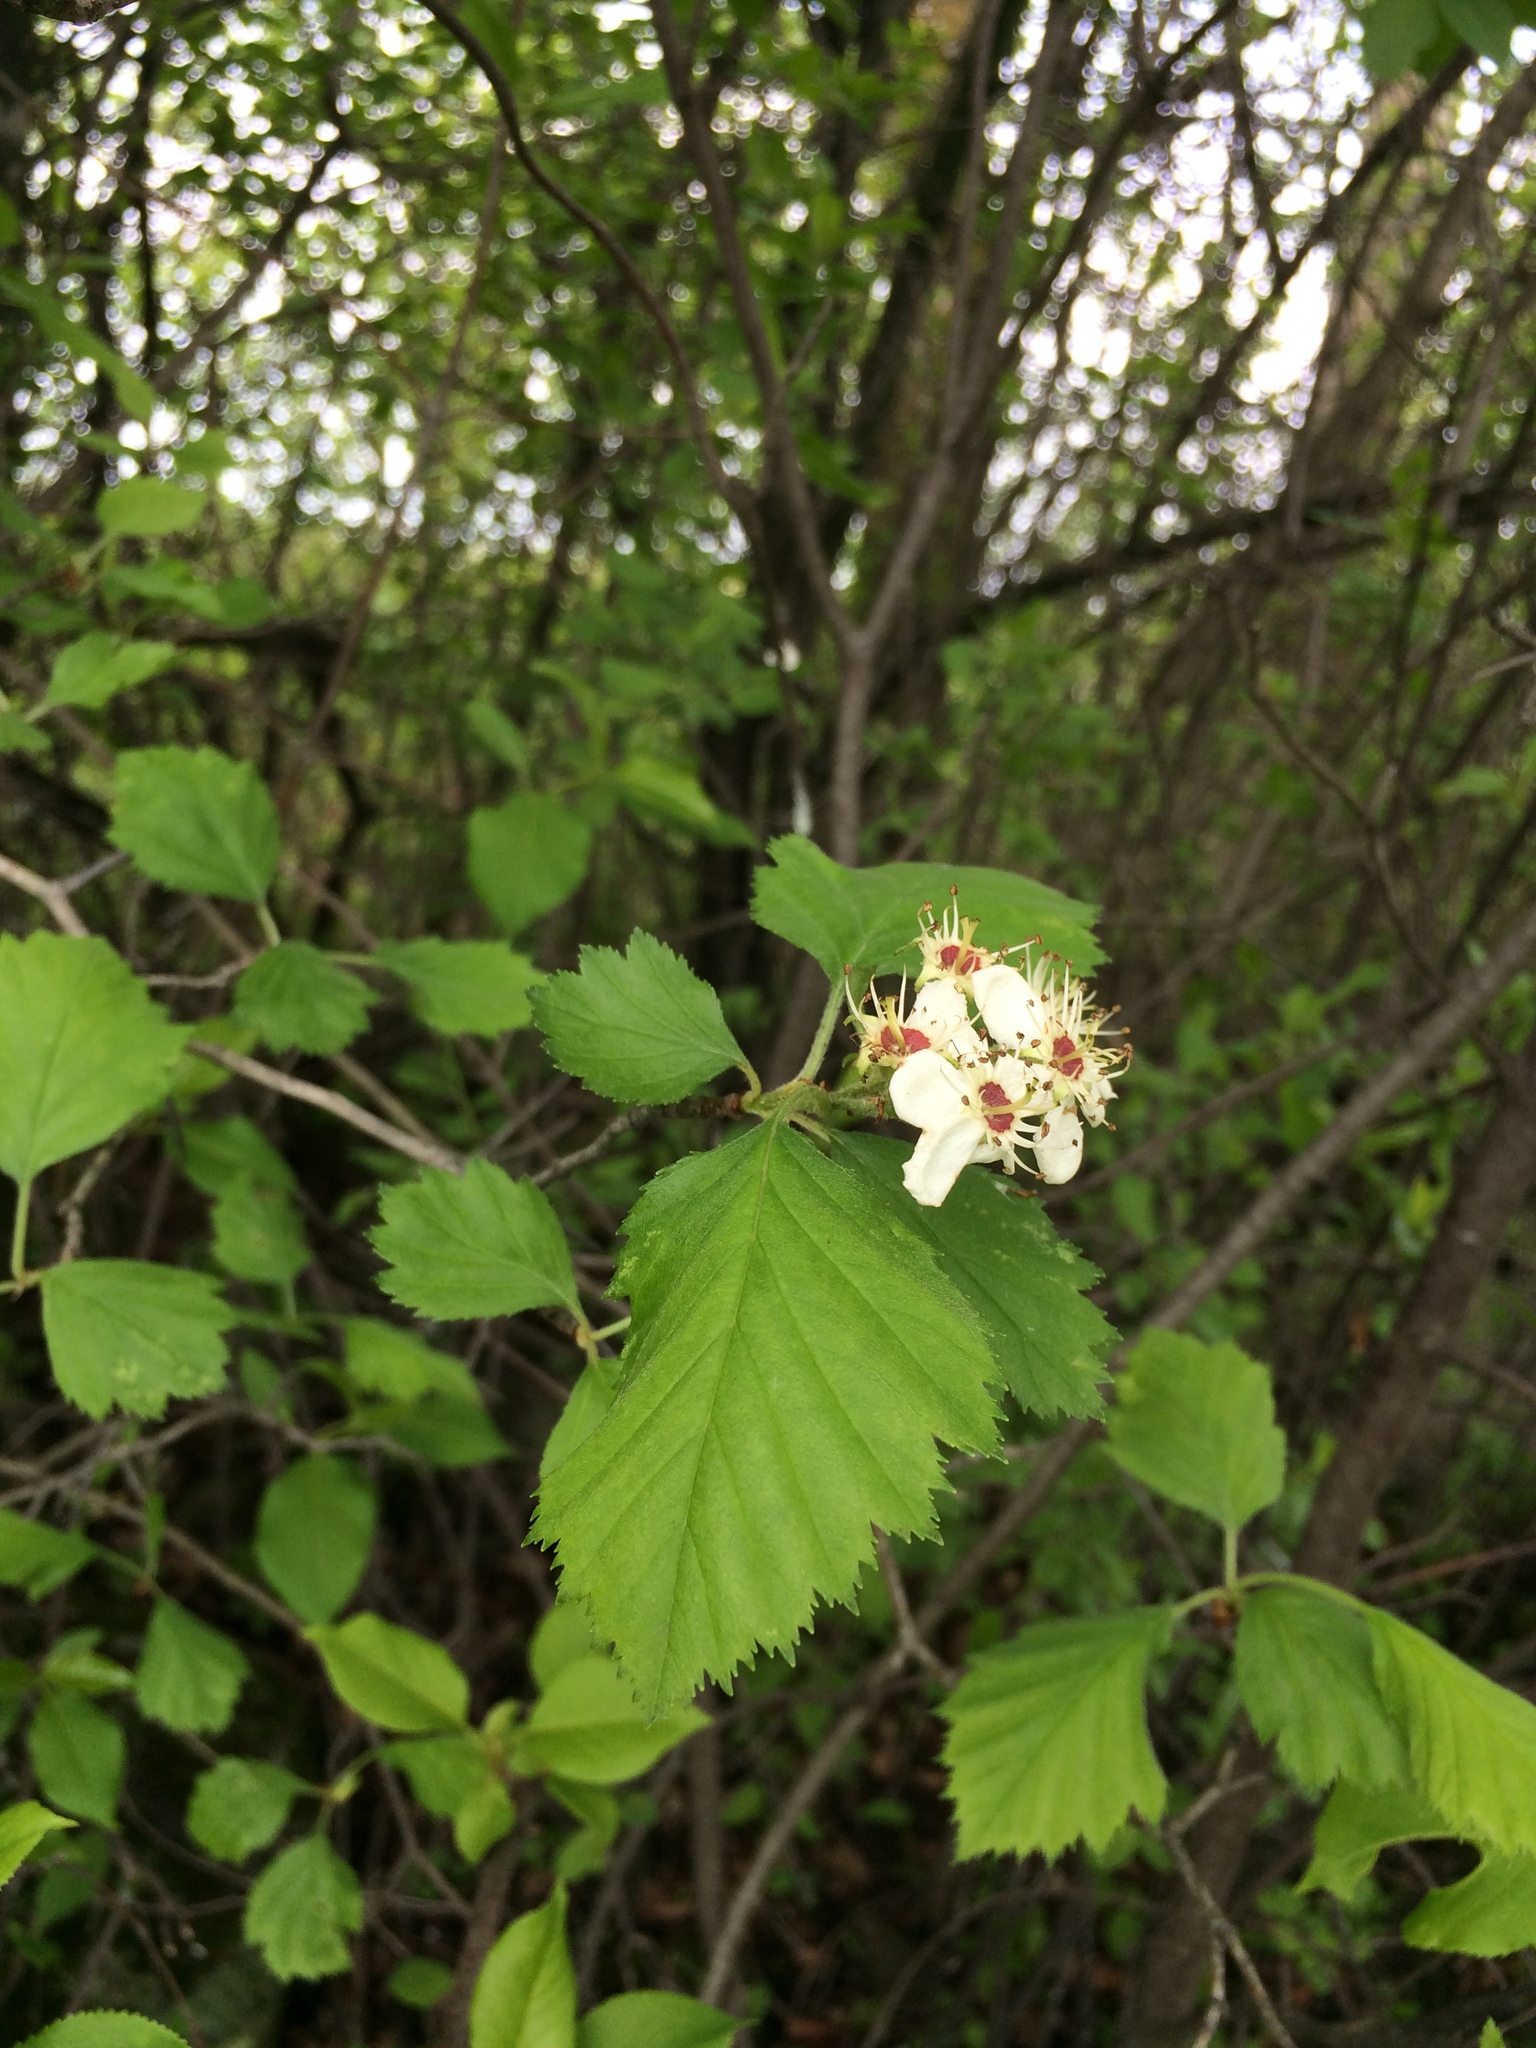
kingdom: Plantae
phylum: Tracheophyta
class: Magnoliopsida
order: Rosales
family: Rosaceae
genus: Crataegus
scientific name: Crataegus submollis
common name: Hairy cockspurthorn
